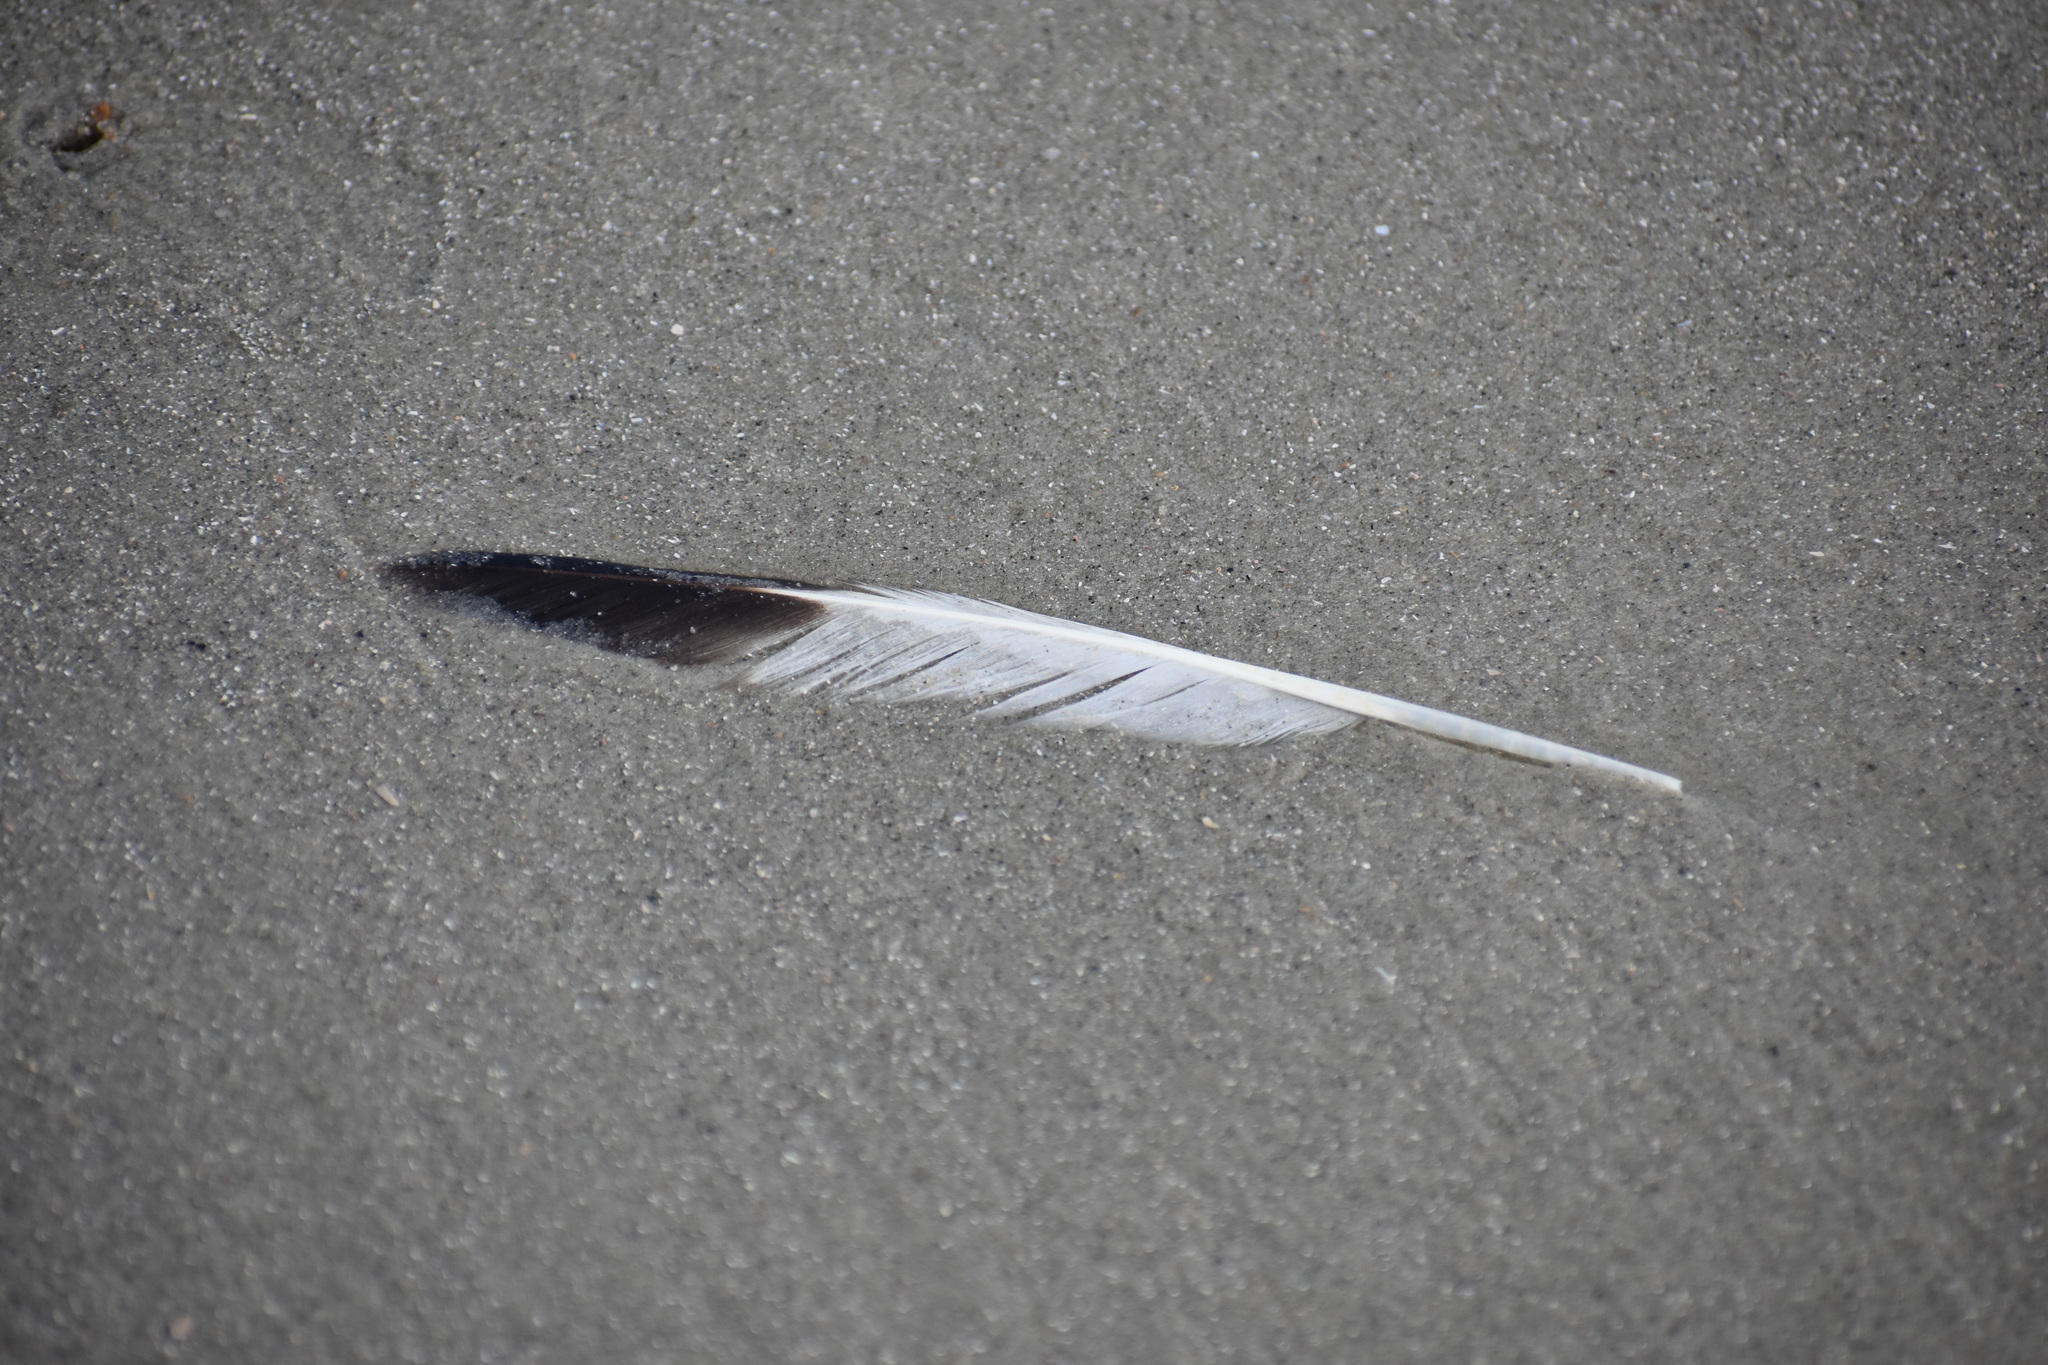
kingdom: Animalia
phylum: Chordata
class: Aves
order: Charadriiformes
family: Scolopacidae
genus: Tringa
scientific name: Tringa semipalmata
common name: Willet
